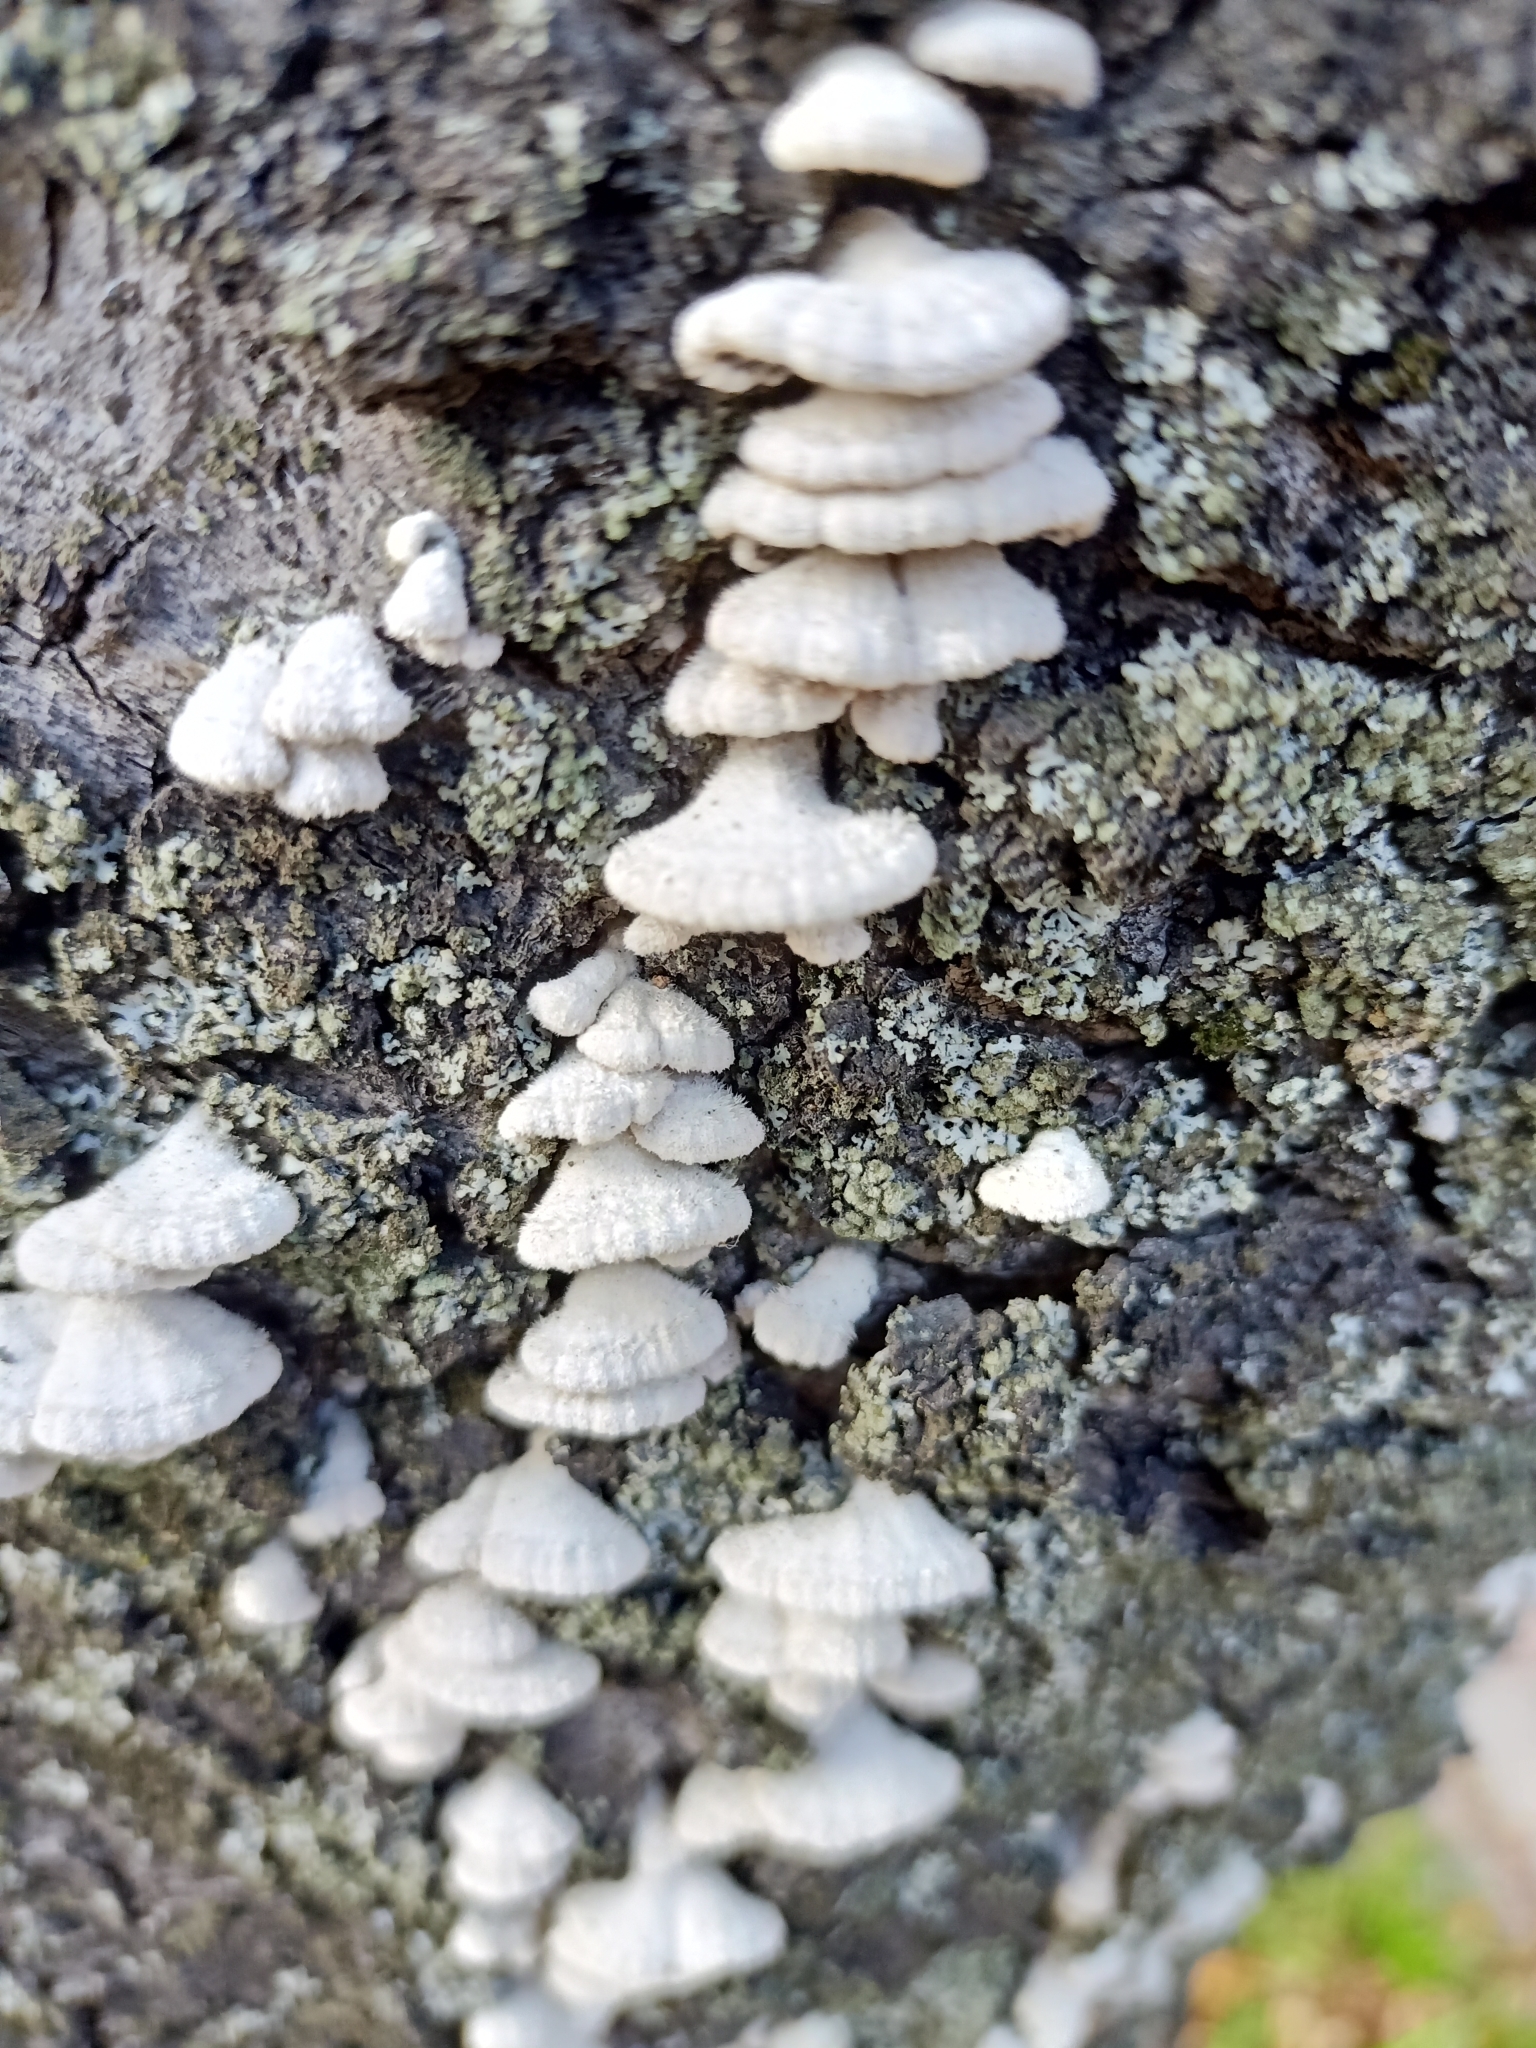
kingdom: Fungi
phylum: Basidiomycota
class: Agaricomycetes
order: Agaricales
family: Schizophyllaceae
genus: Schizophyllum
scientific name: Schizophyllum commune
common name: Common porecrust
